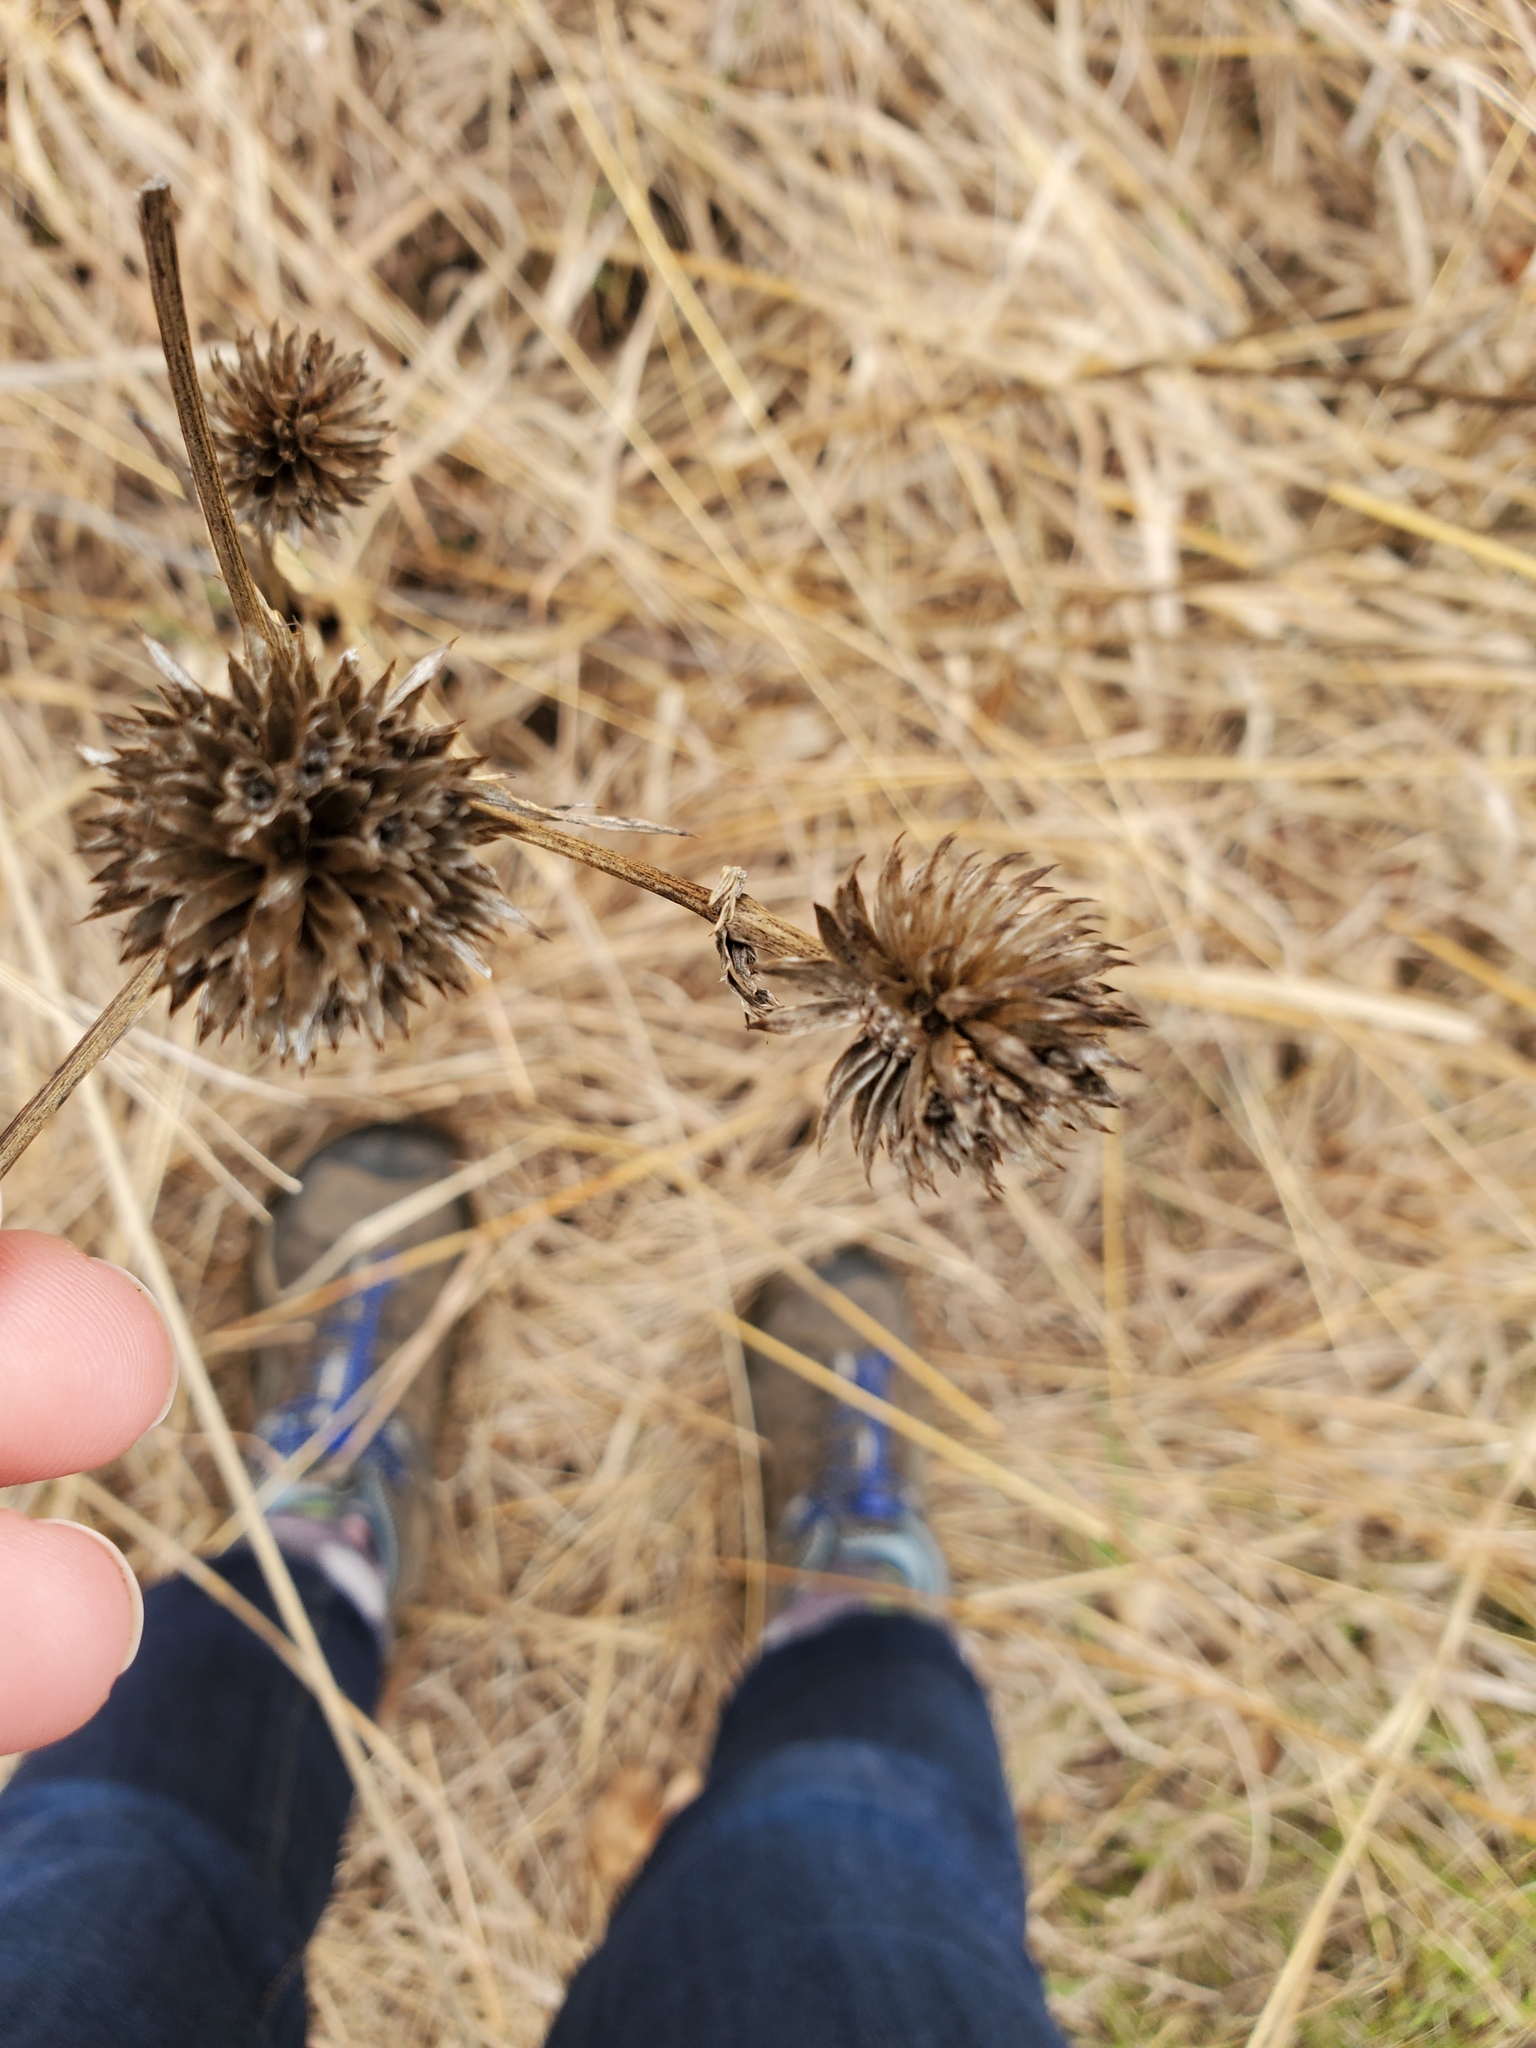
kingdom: Plantae
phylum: Tracheophyta
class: Magnoliopsida
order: Apiales
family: Apiaceae
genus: Eryngium
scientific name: Eryngium yuccifolium
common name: Button eryngo
